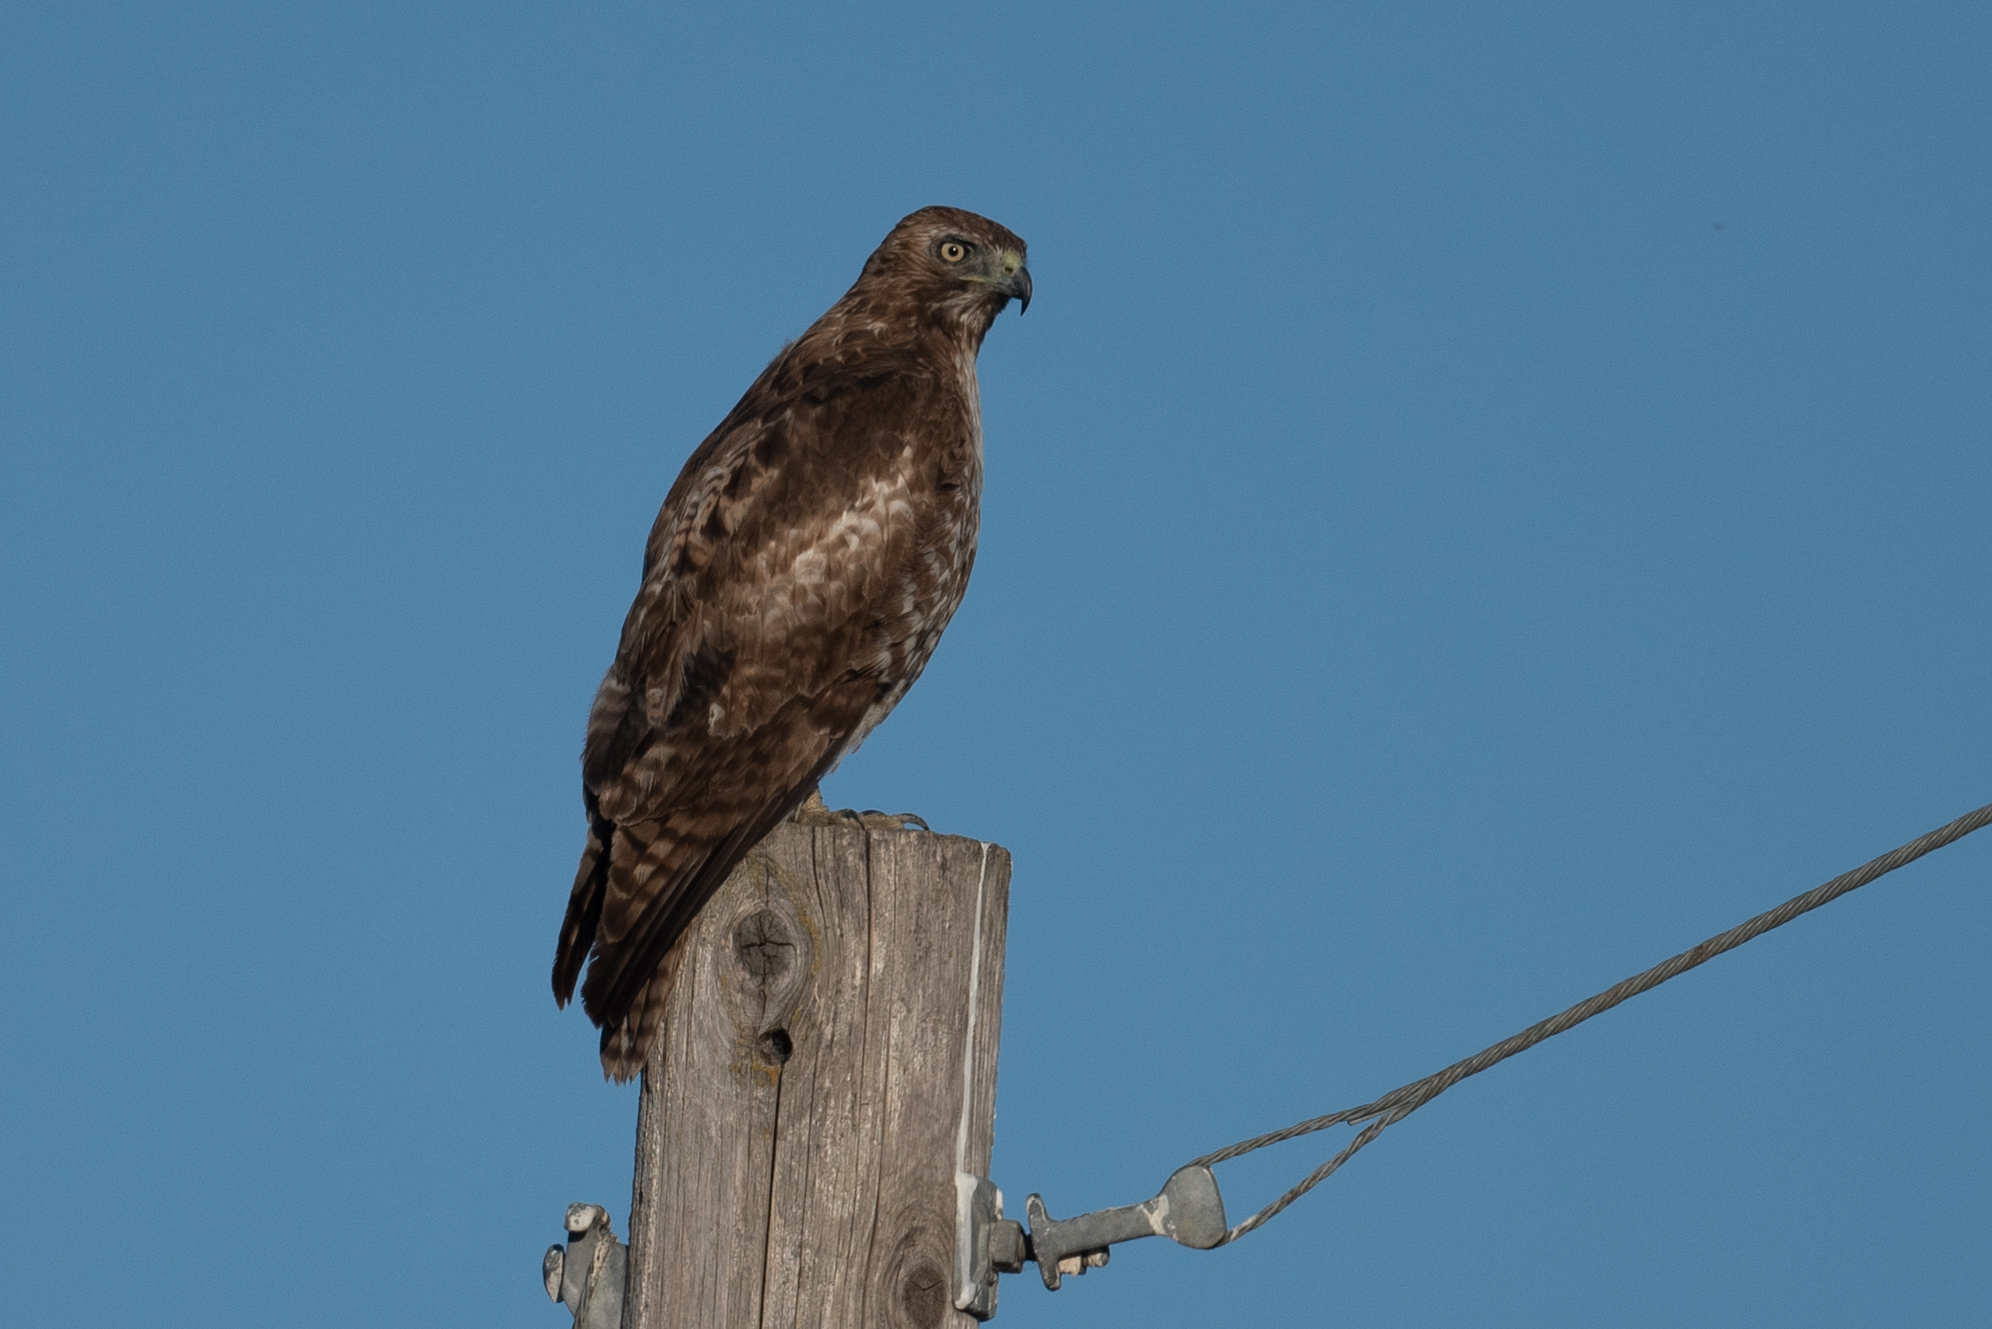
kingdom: Animalia
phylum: Chordata
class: Aves
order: Accipitriformes
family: Accipitridae
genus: Buteo
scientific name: Buteo jamaicensis
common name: Red-tailed hawk
